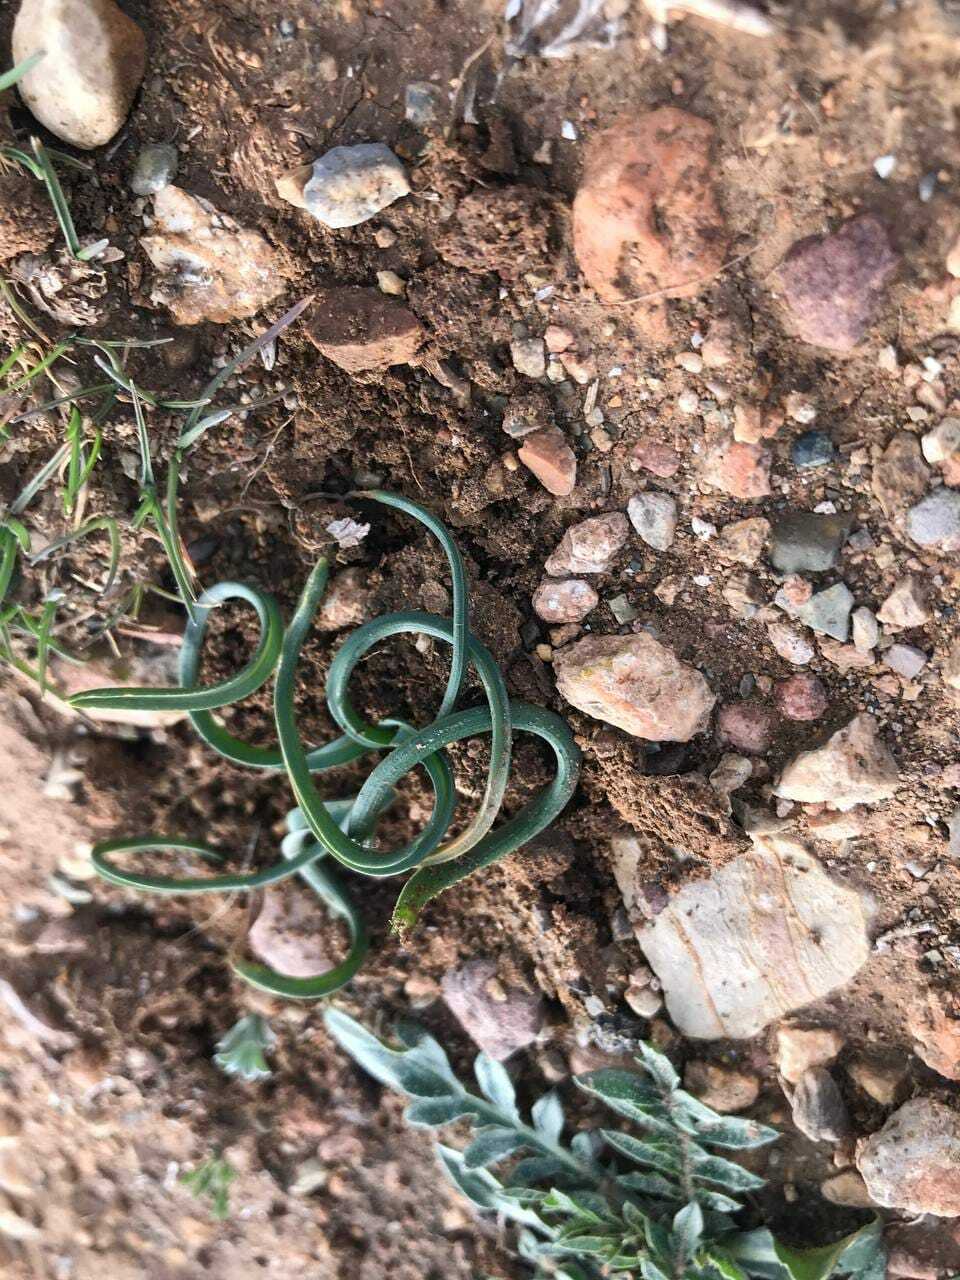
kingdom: Plantae
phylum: Tracheophyta
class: Liliopsida
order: Asparagales
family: Asparagaceae
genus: Ornithogalum
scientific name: Ornithogalum baeticum
